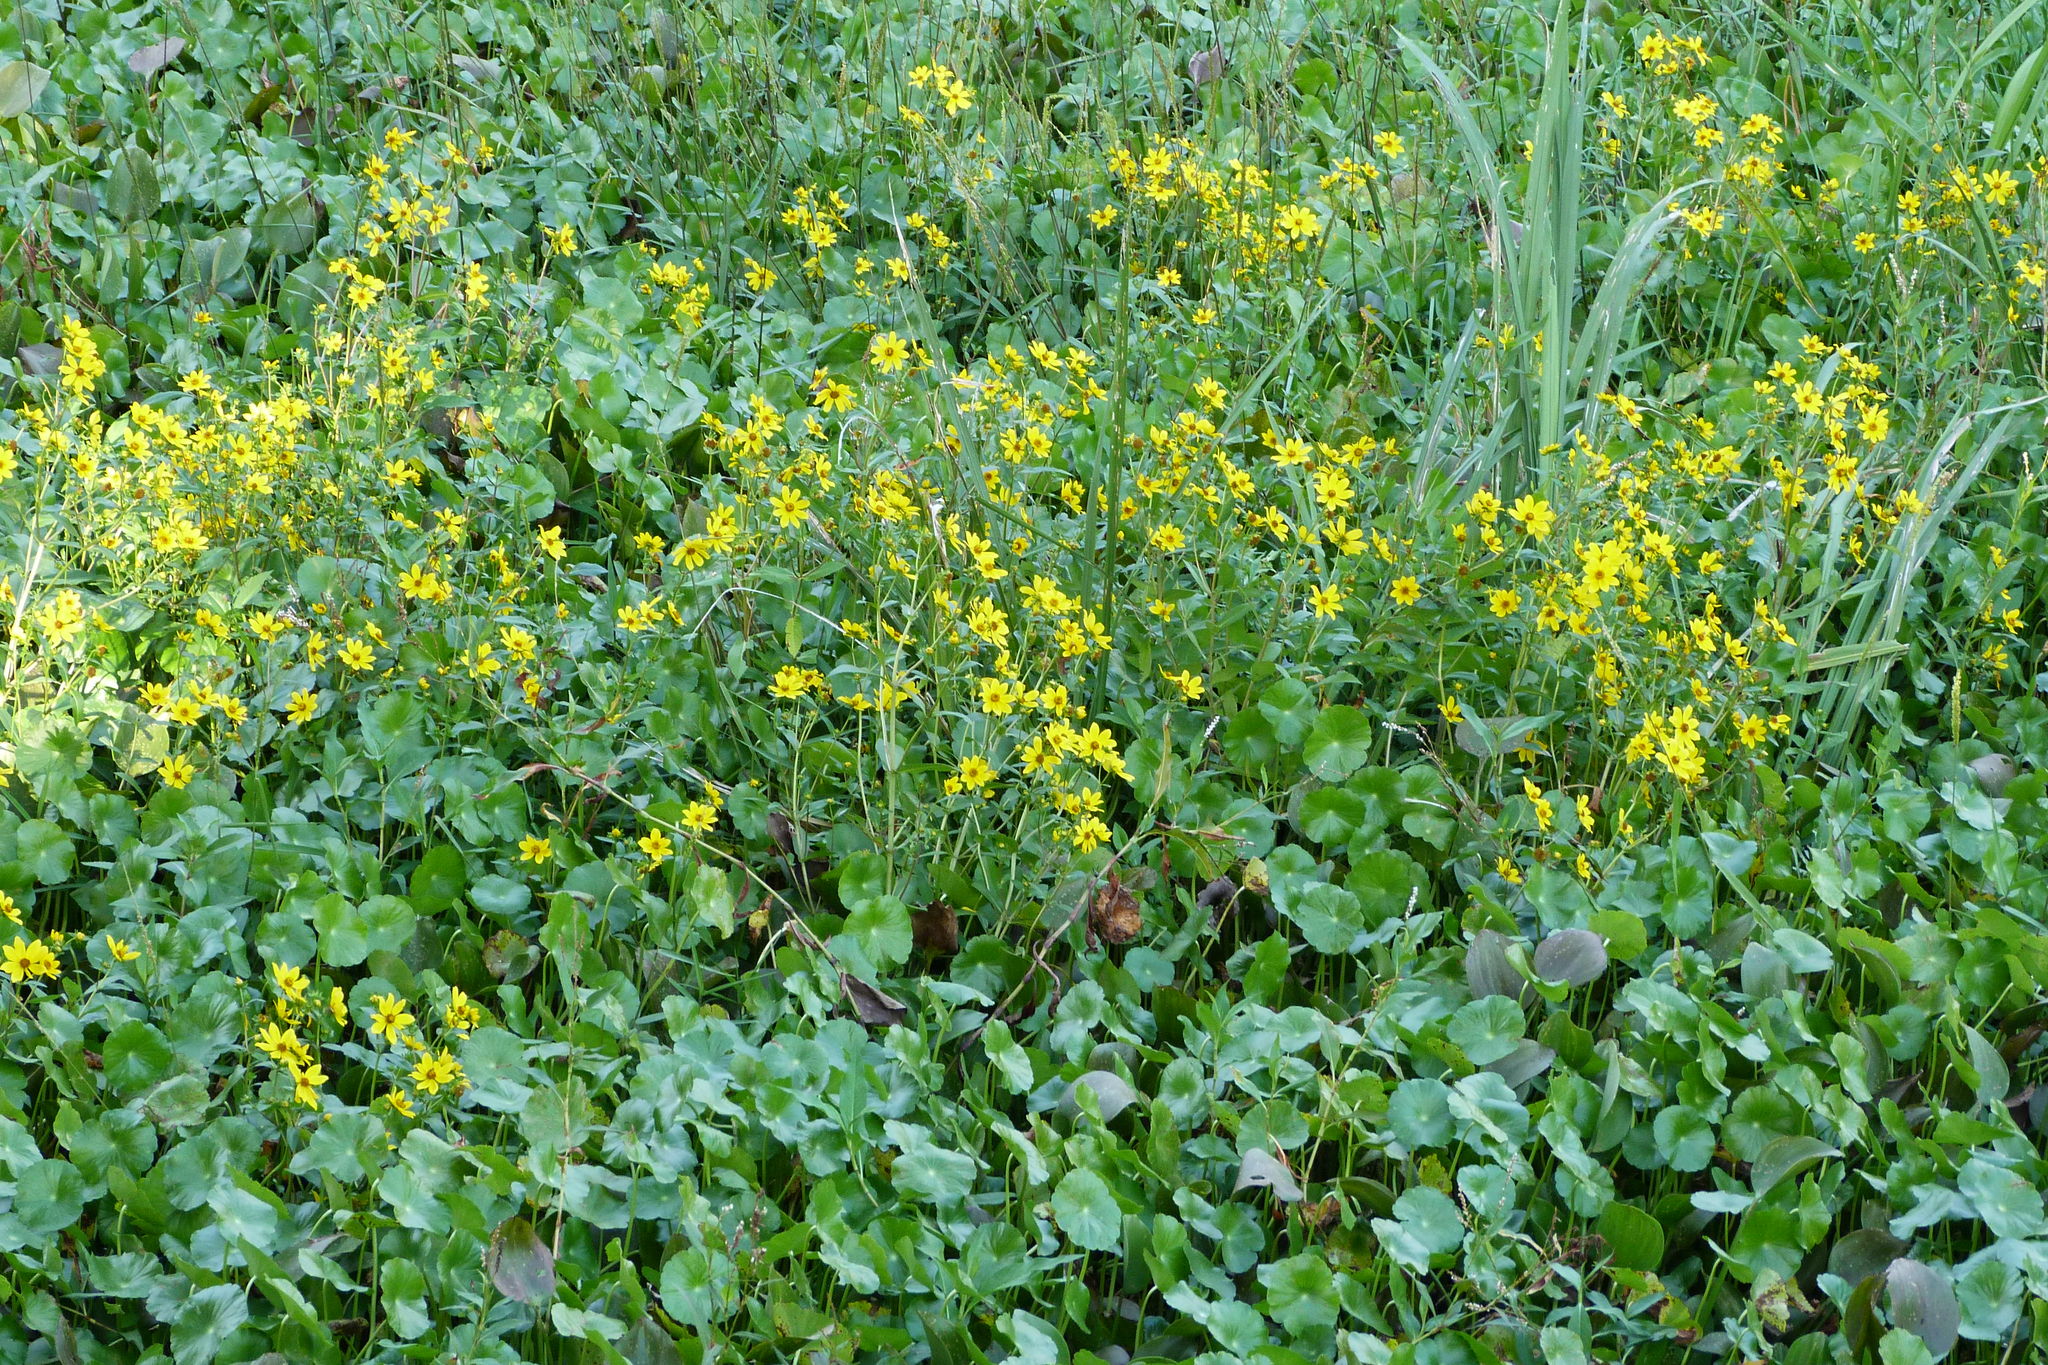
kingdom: Plantae
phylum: Tracheophyta
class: Magnoliopsida
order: Apiales
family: Araliaceae
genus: Hydrocotyle
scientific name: Hydrocotyle bonariensis
